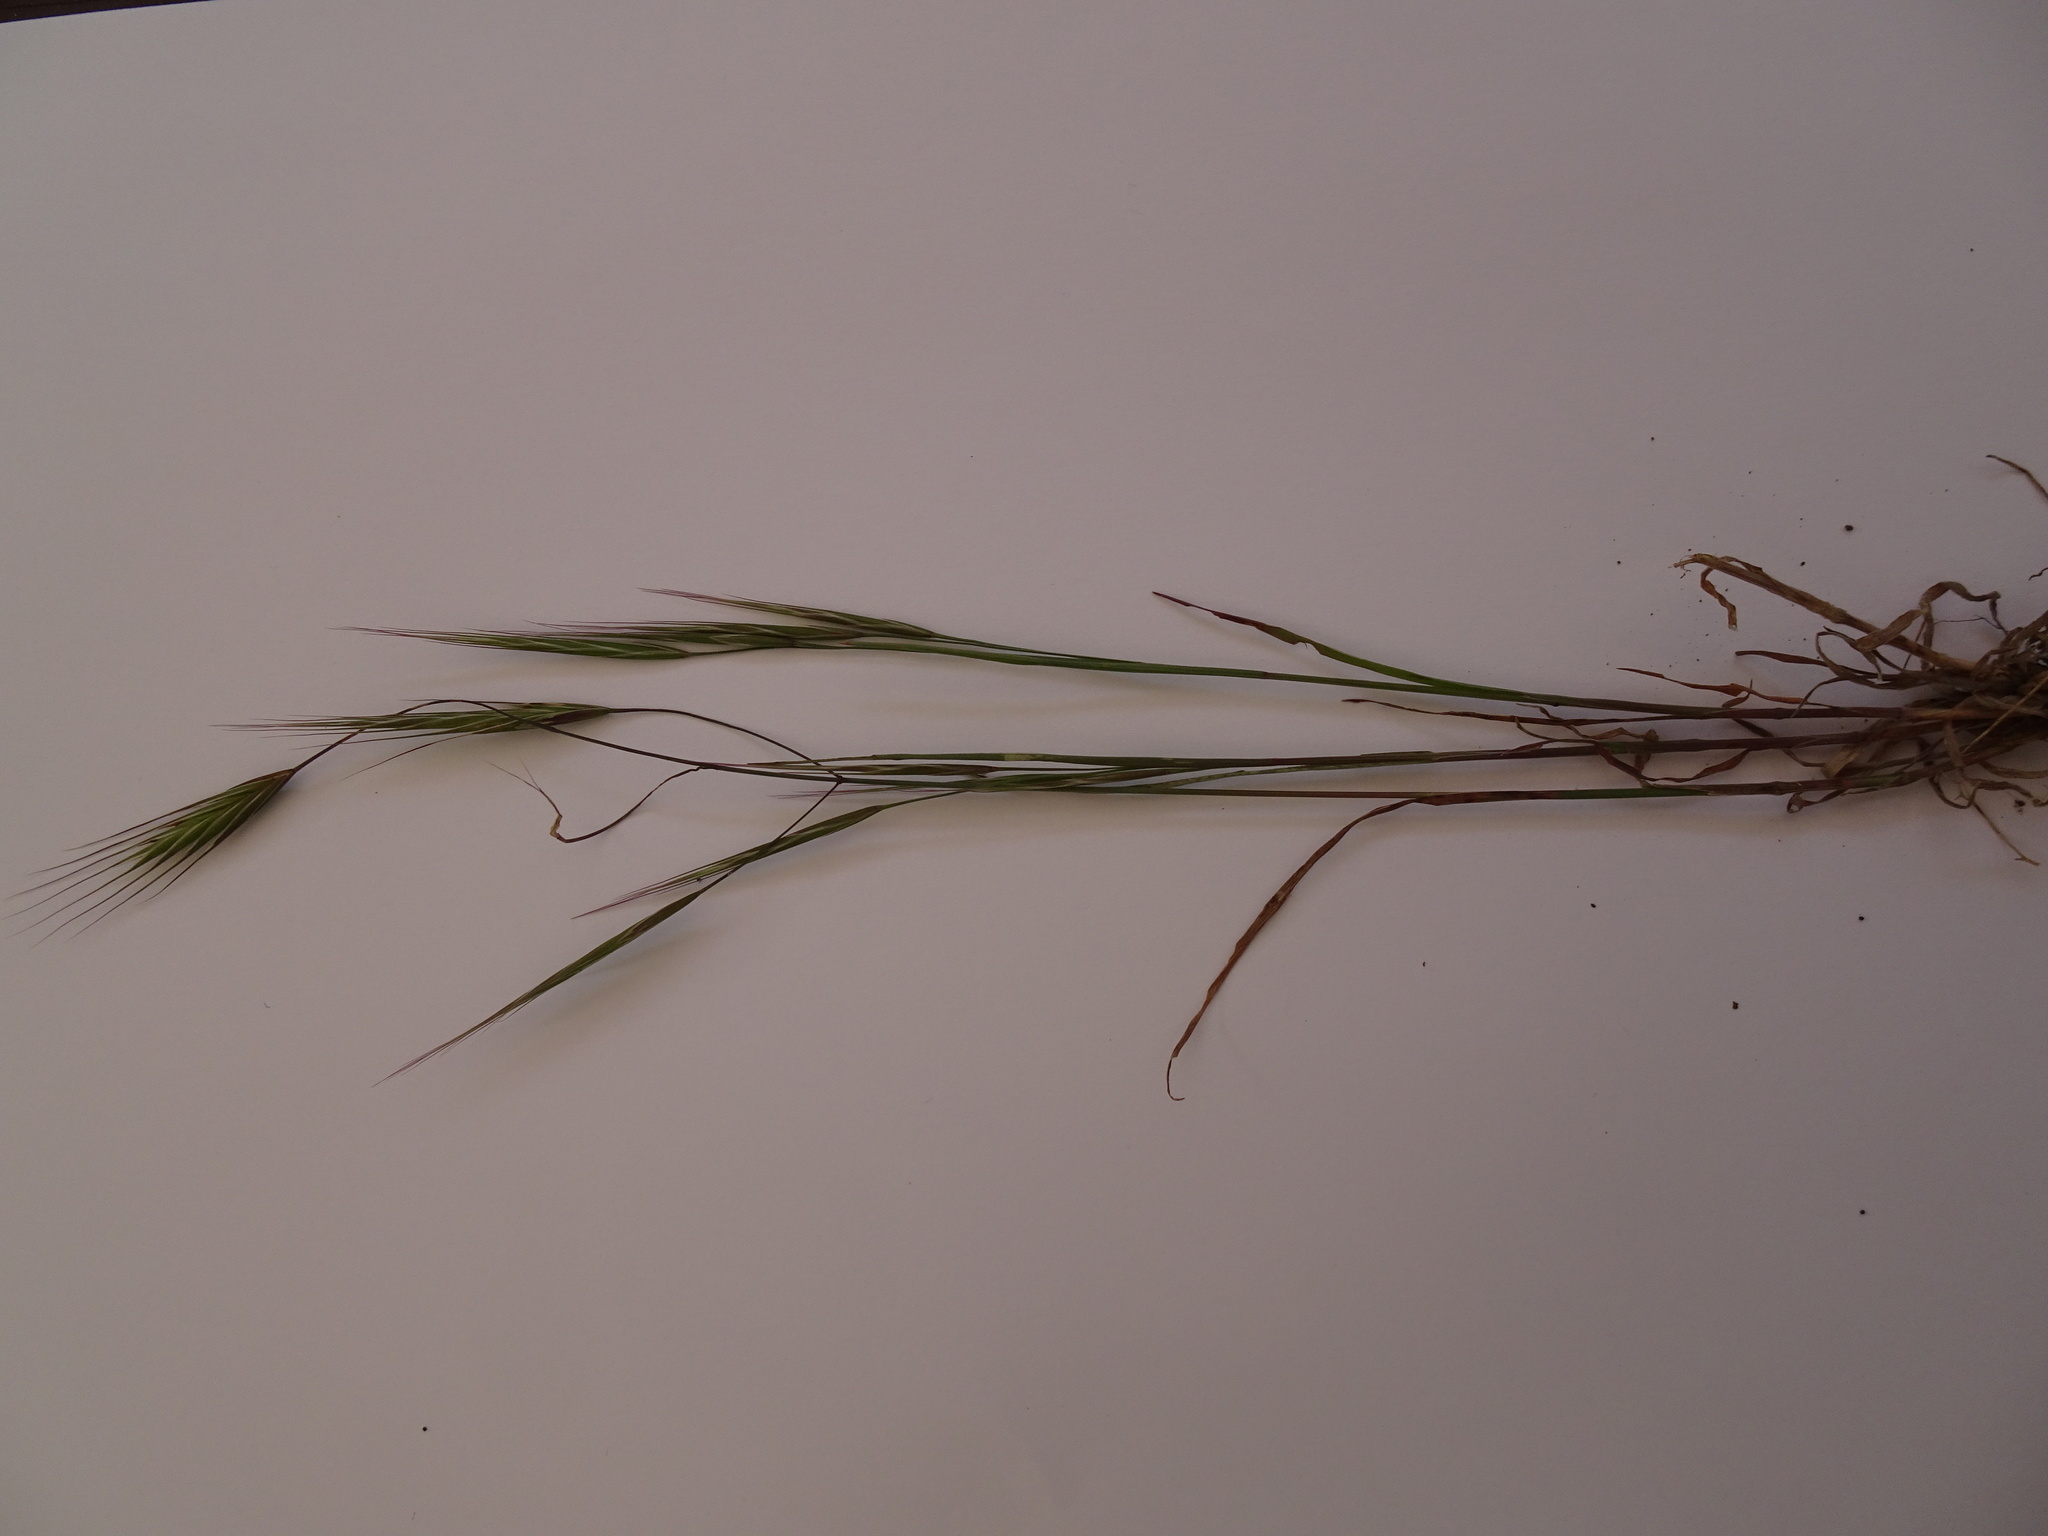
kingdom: Plantae
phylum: Tracheophyta
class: Liliopsida
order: Poales
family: Poaceae
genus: Bromus
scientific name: Bromus sterilis
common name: Poverty brome
